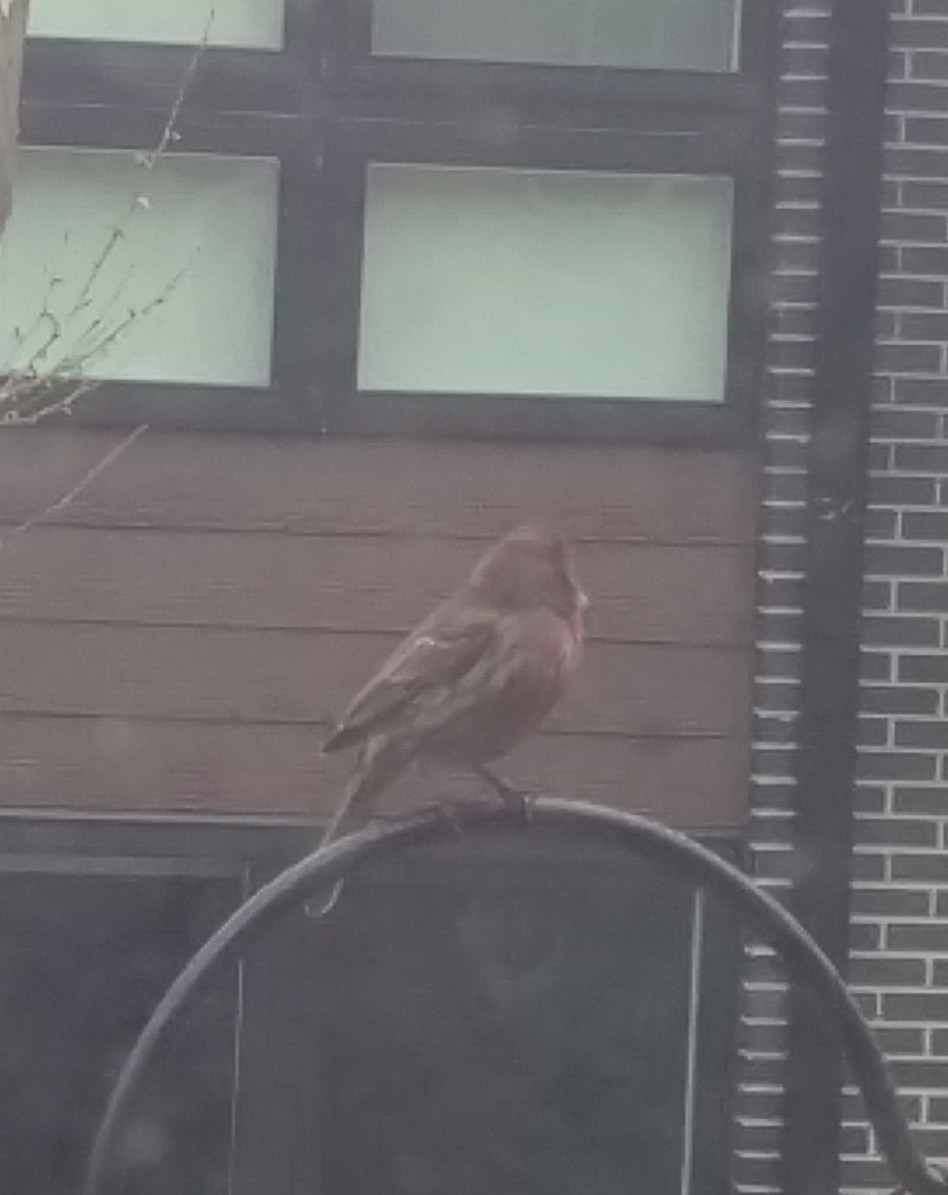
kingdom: Animalia
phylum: Chordata
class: Aves
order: Passeriformes
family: Fringillidae
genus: Haemorhous
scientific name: Haemorhous mexicanus
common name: House finch
